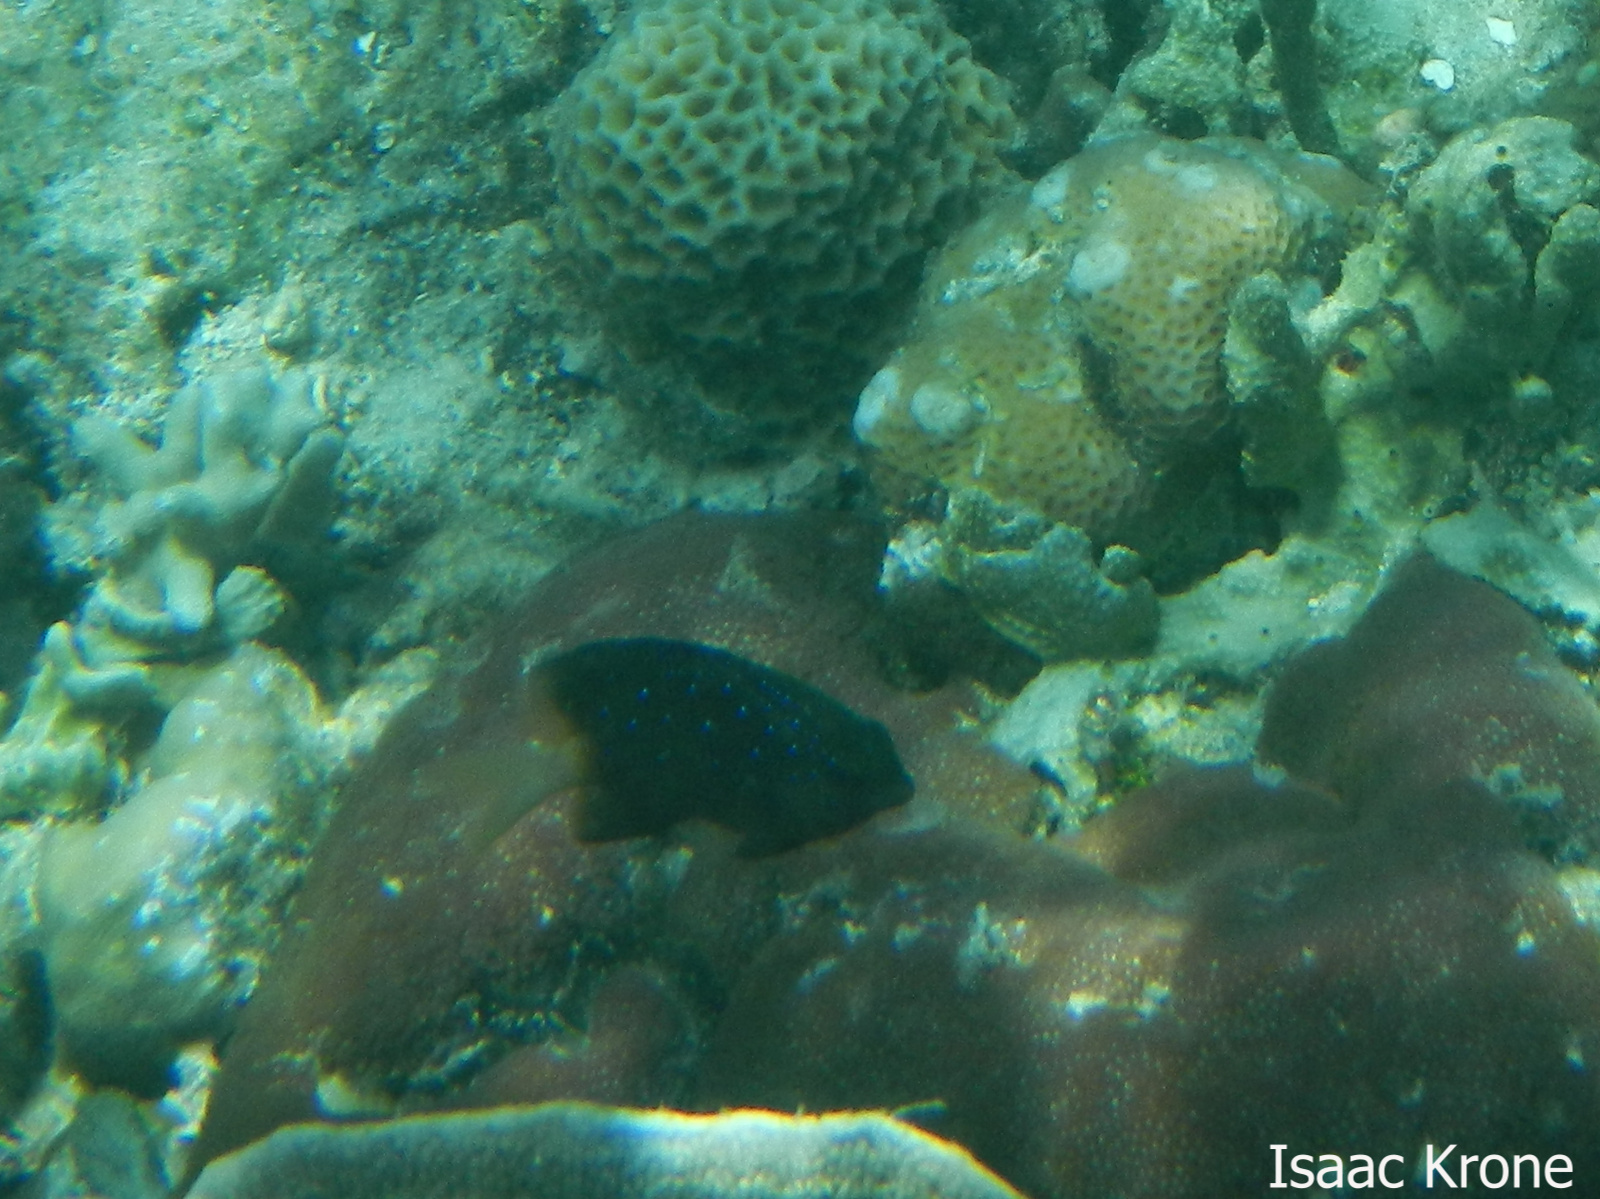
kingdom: Animalia
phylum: Chordata
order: Perciformes
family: Pomacentridae
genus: Plectroglyphidodon
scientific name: Plectroglyphidodon lacrymatus
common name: Jewel damsel
